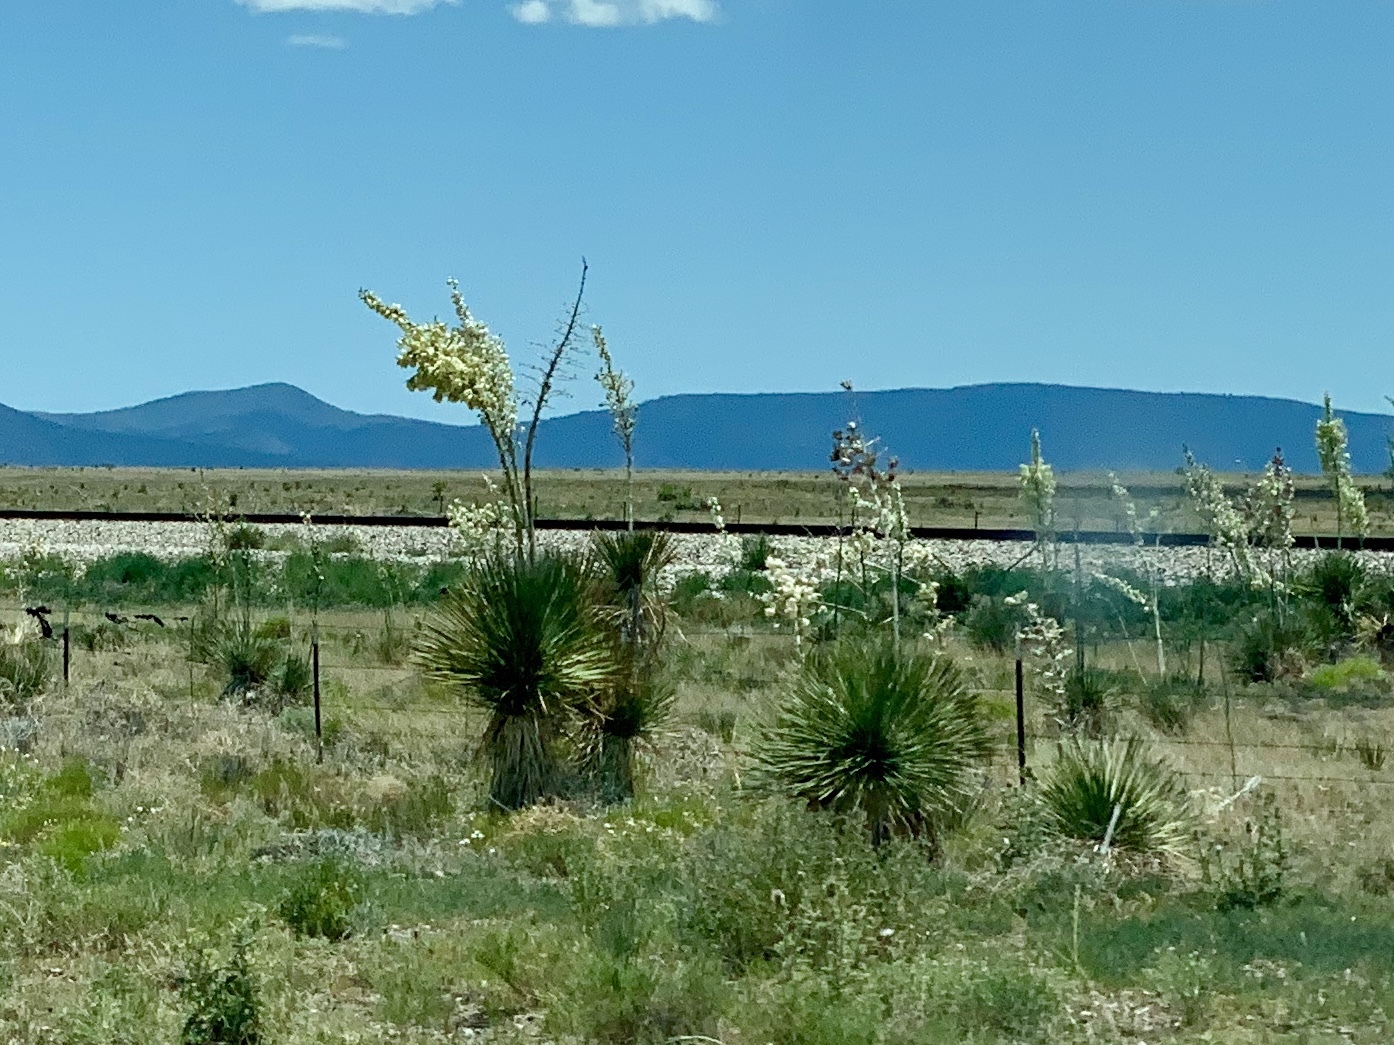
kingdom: Plantae
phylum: Tracheophyta
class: Liliopsida
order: Asparagales
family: Asparagaceae
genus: Yucca
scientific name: Yucca elata
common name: Palmella
